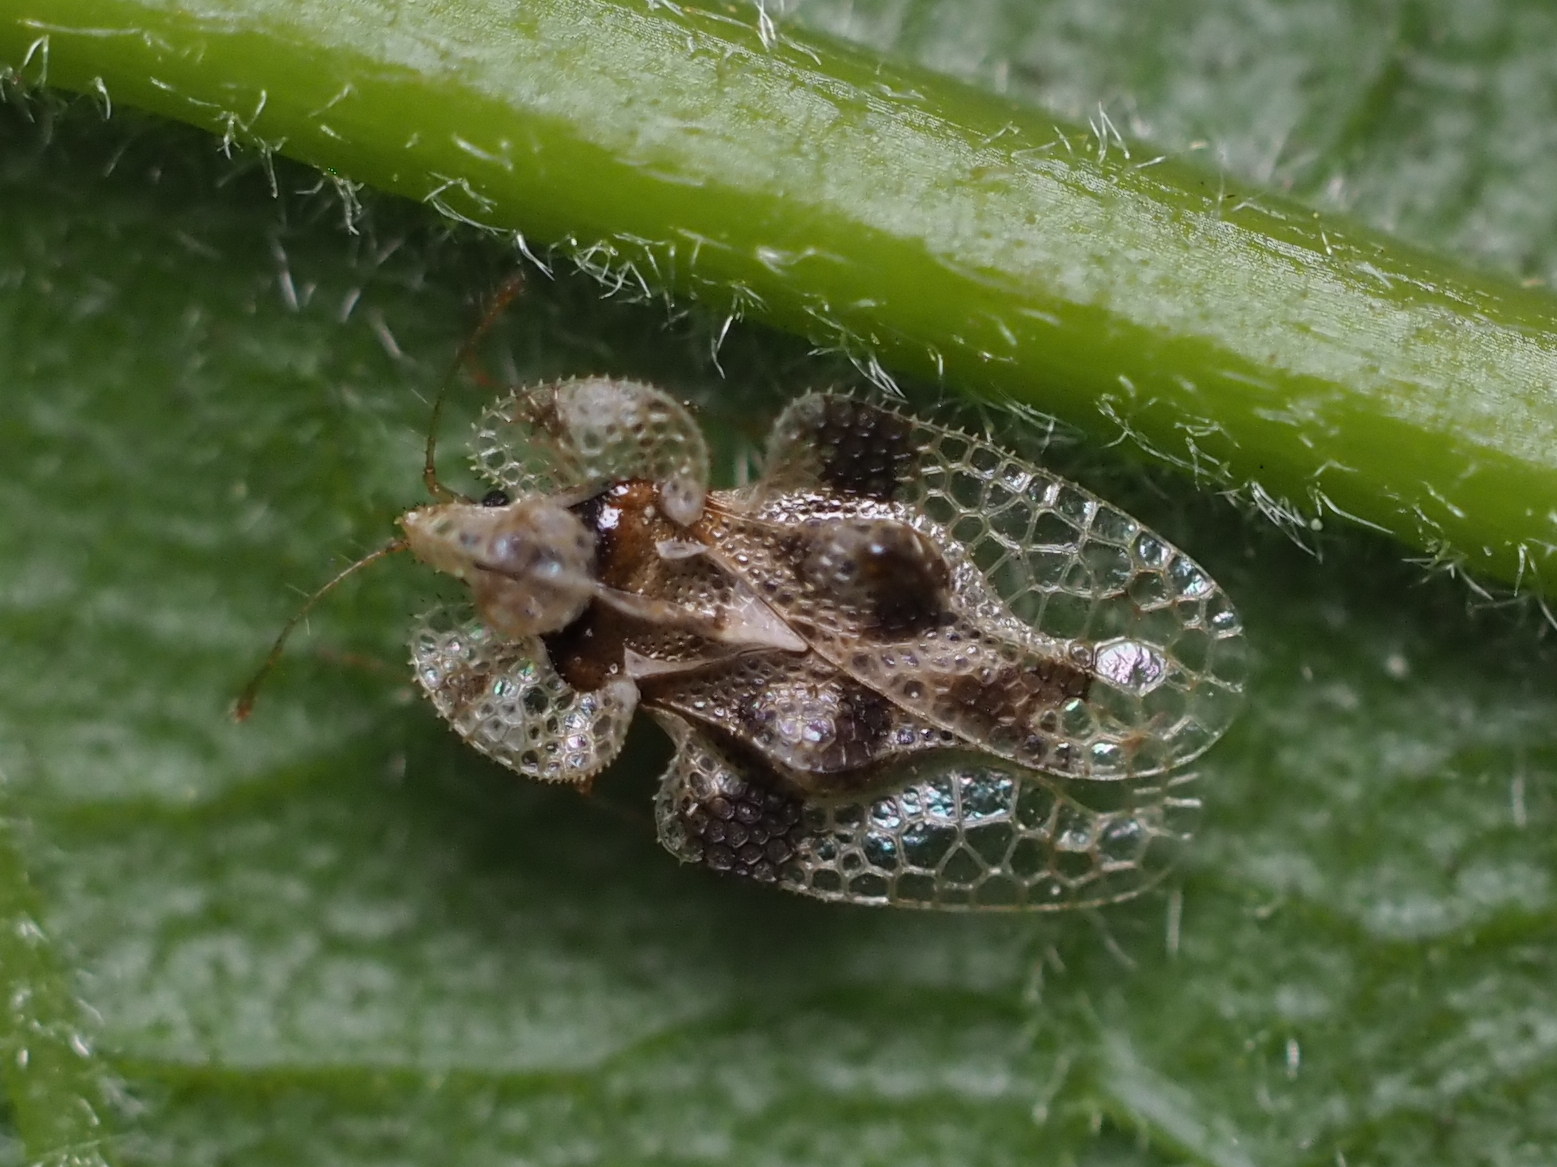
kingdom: Animalia
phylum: Arthropoda
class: Insecta
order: Hemiptera
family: Tingidae
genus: Corythucha
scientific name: Corythucha arcuata
